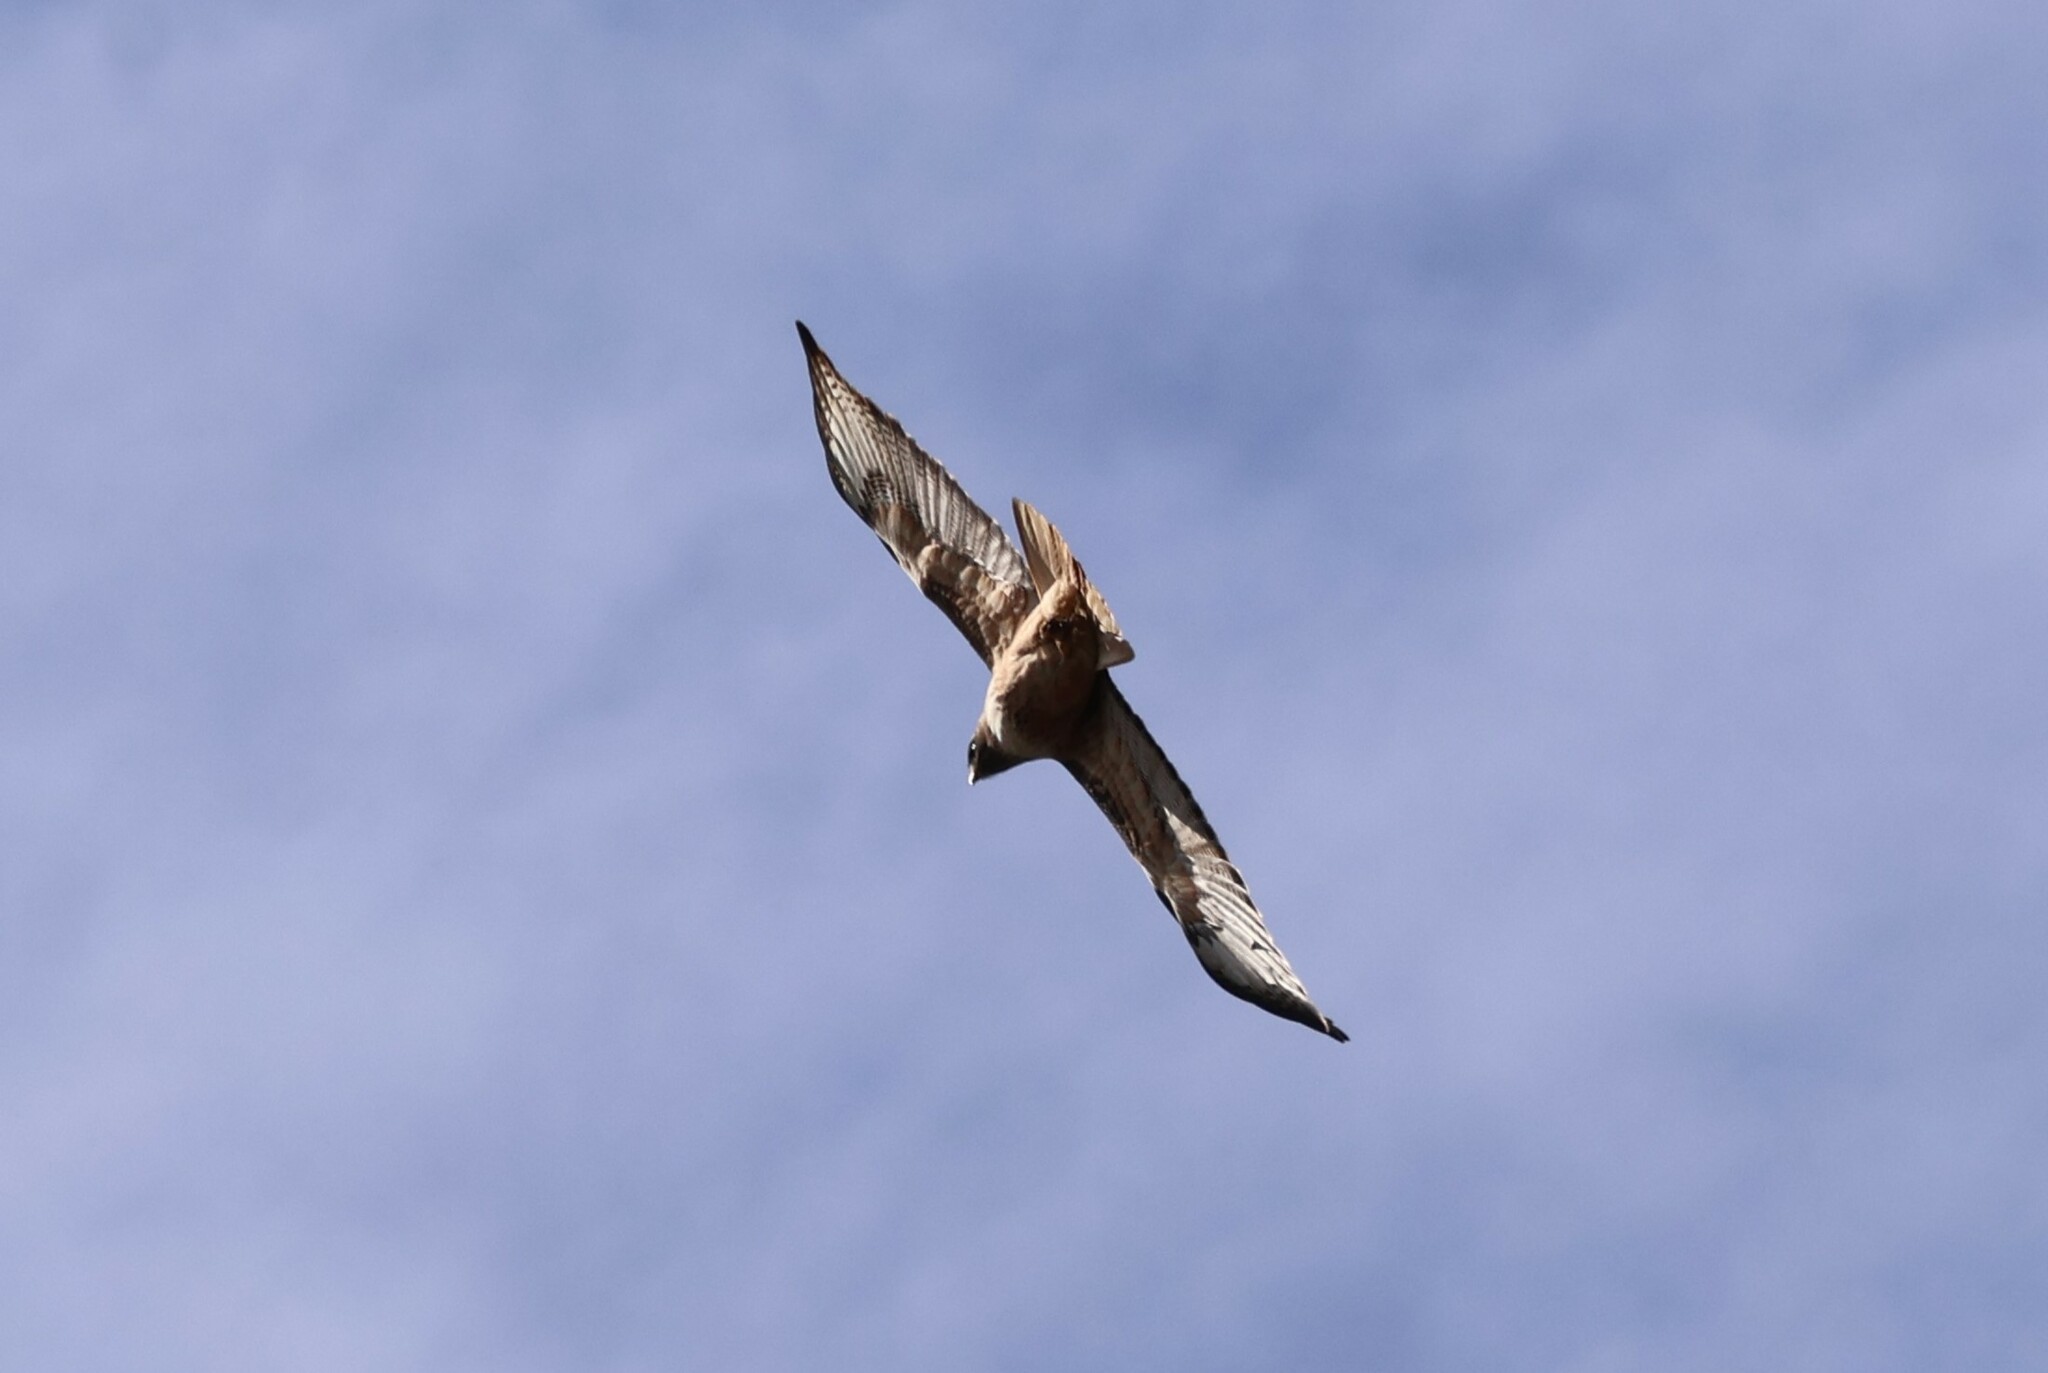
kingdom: Animalia
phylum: Chordata
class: Aves
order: Accipitriformes
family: Accipitridae
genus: Buteo
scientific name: Buteo jamaicensis
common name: Red-tailed hawk
